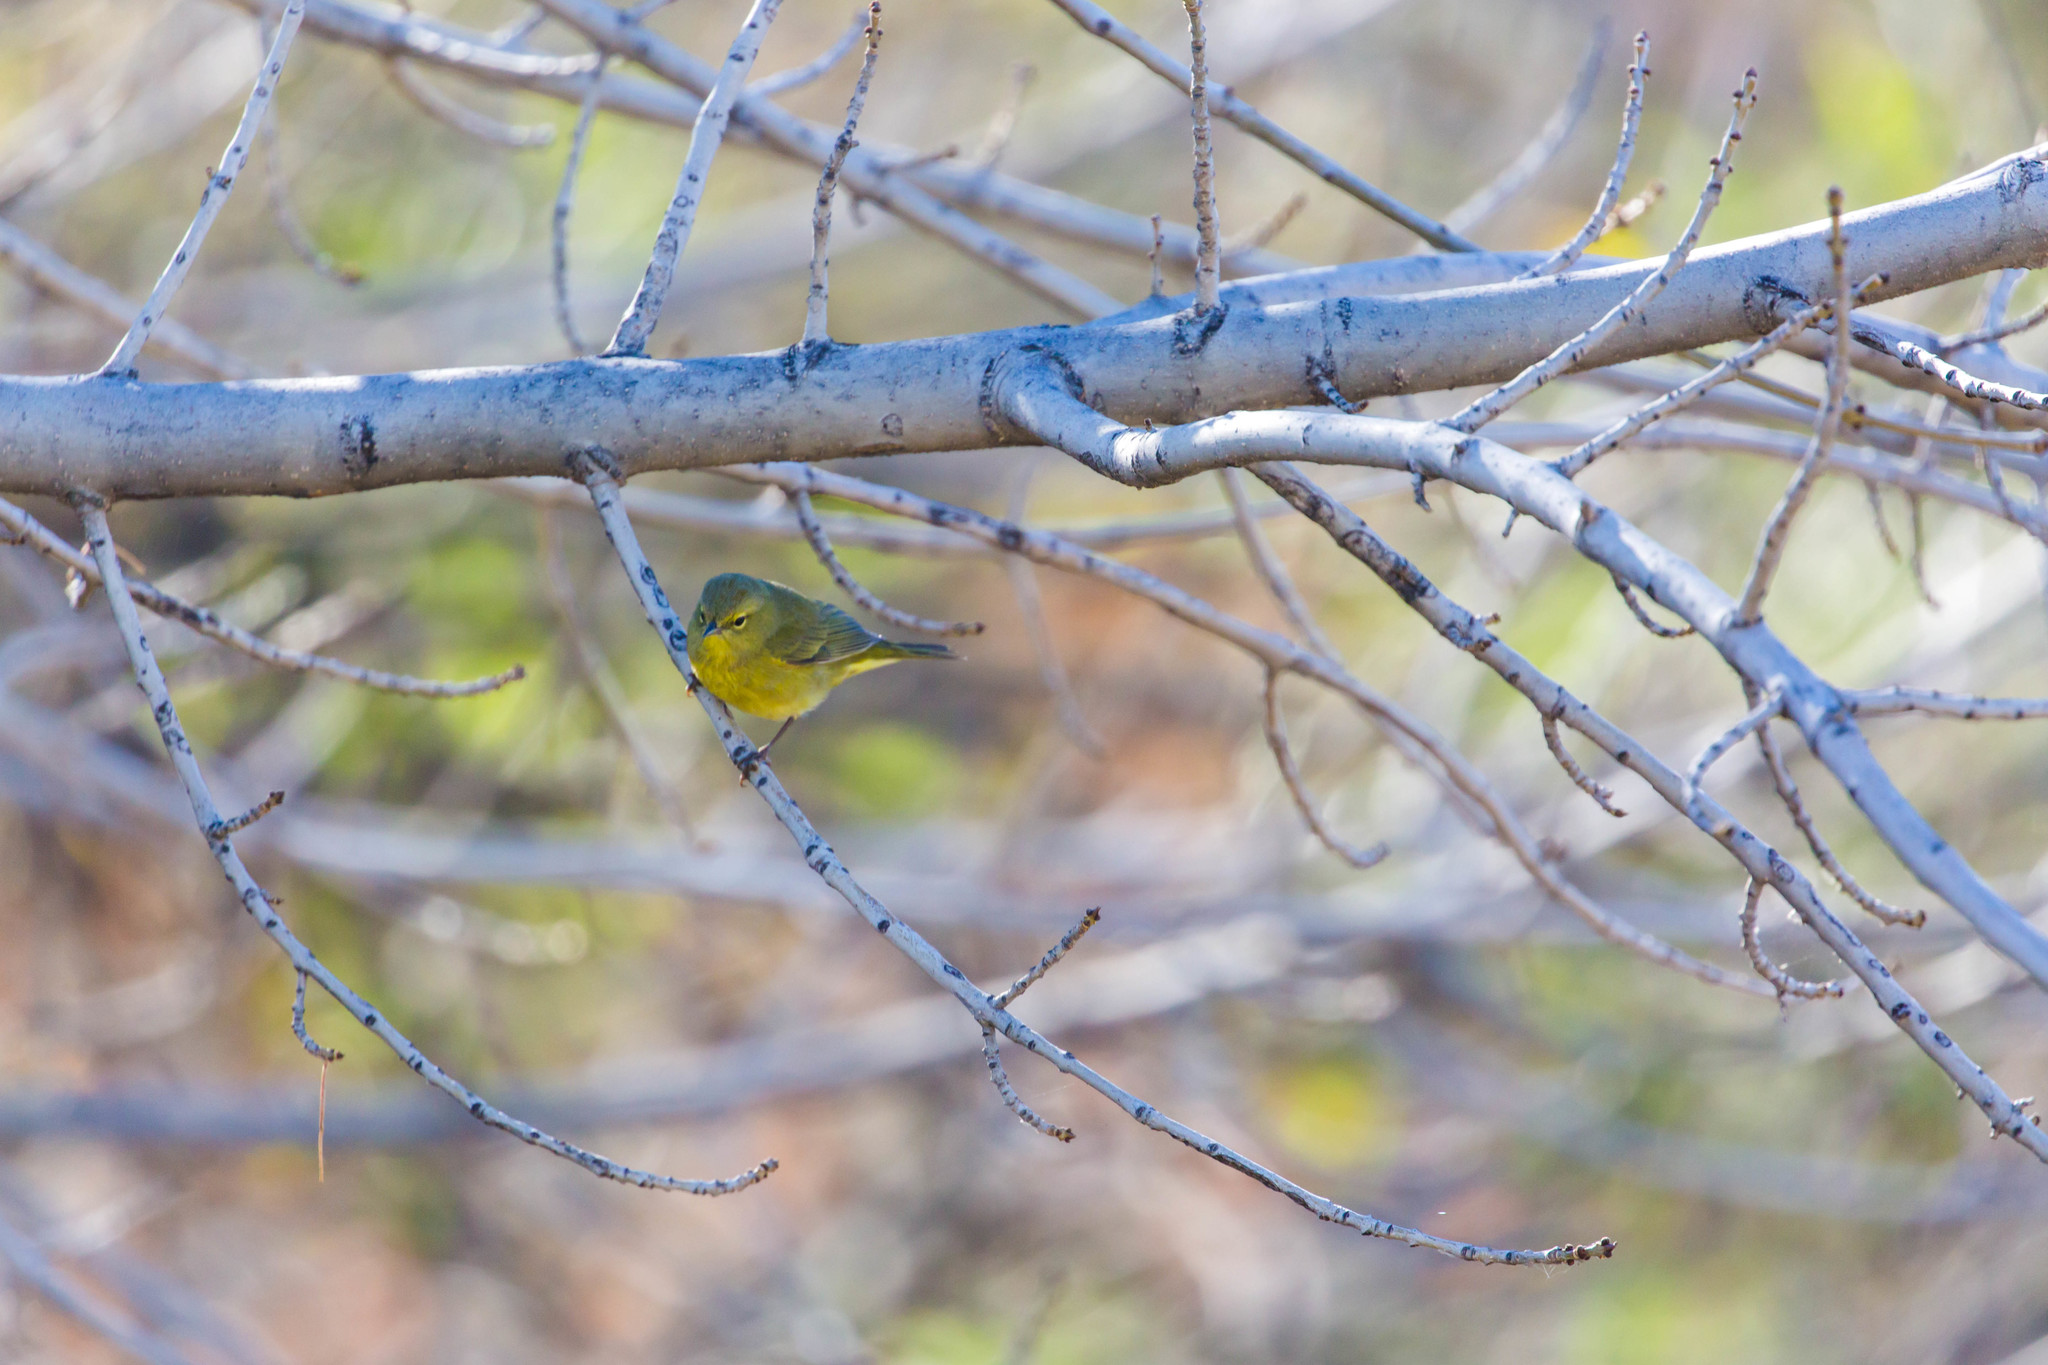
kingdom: Animalia
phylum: Chordata
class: Aves
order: Passeriformes
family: Parulidae
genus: Leiothlypis
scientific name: Leiothlypis celata
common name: Orange-crowned warbler
